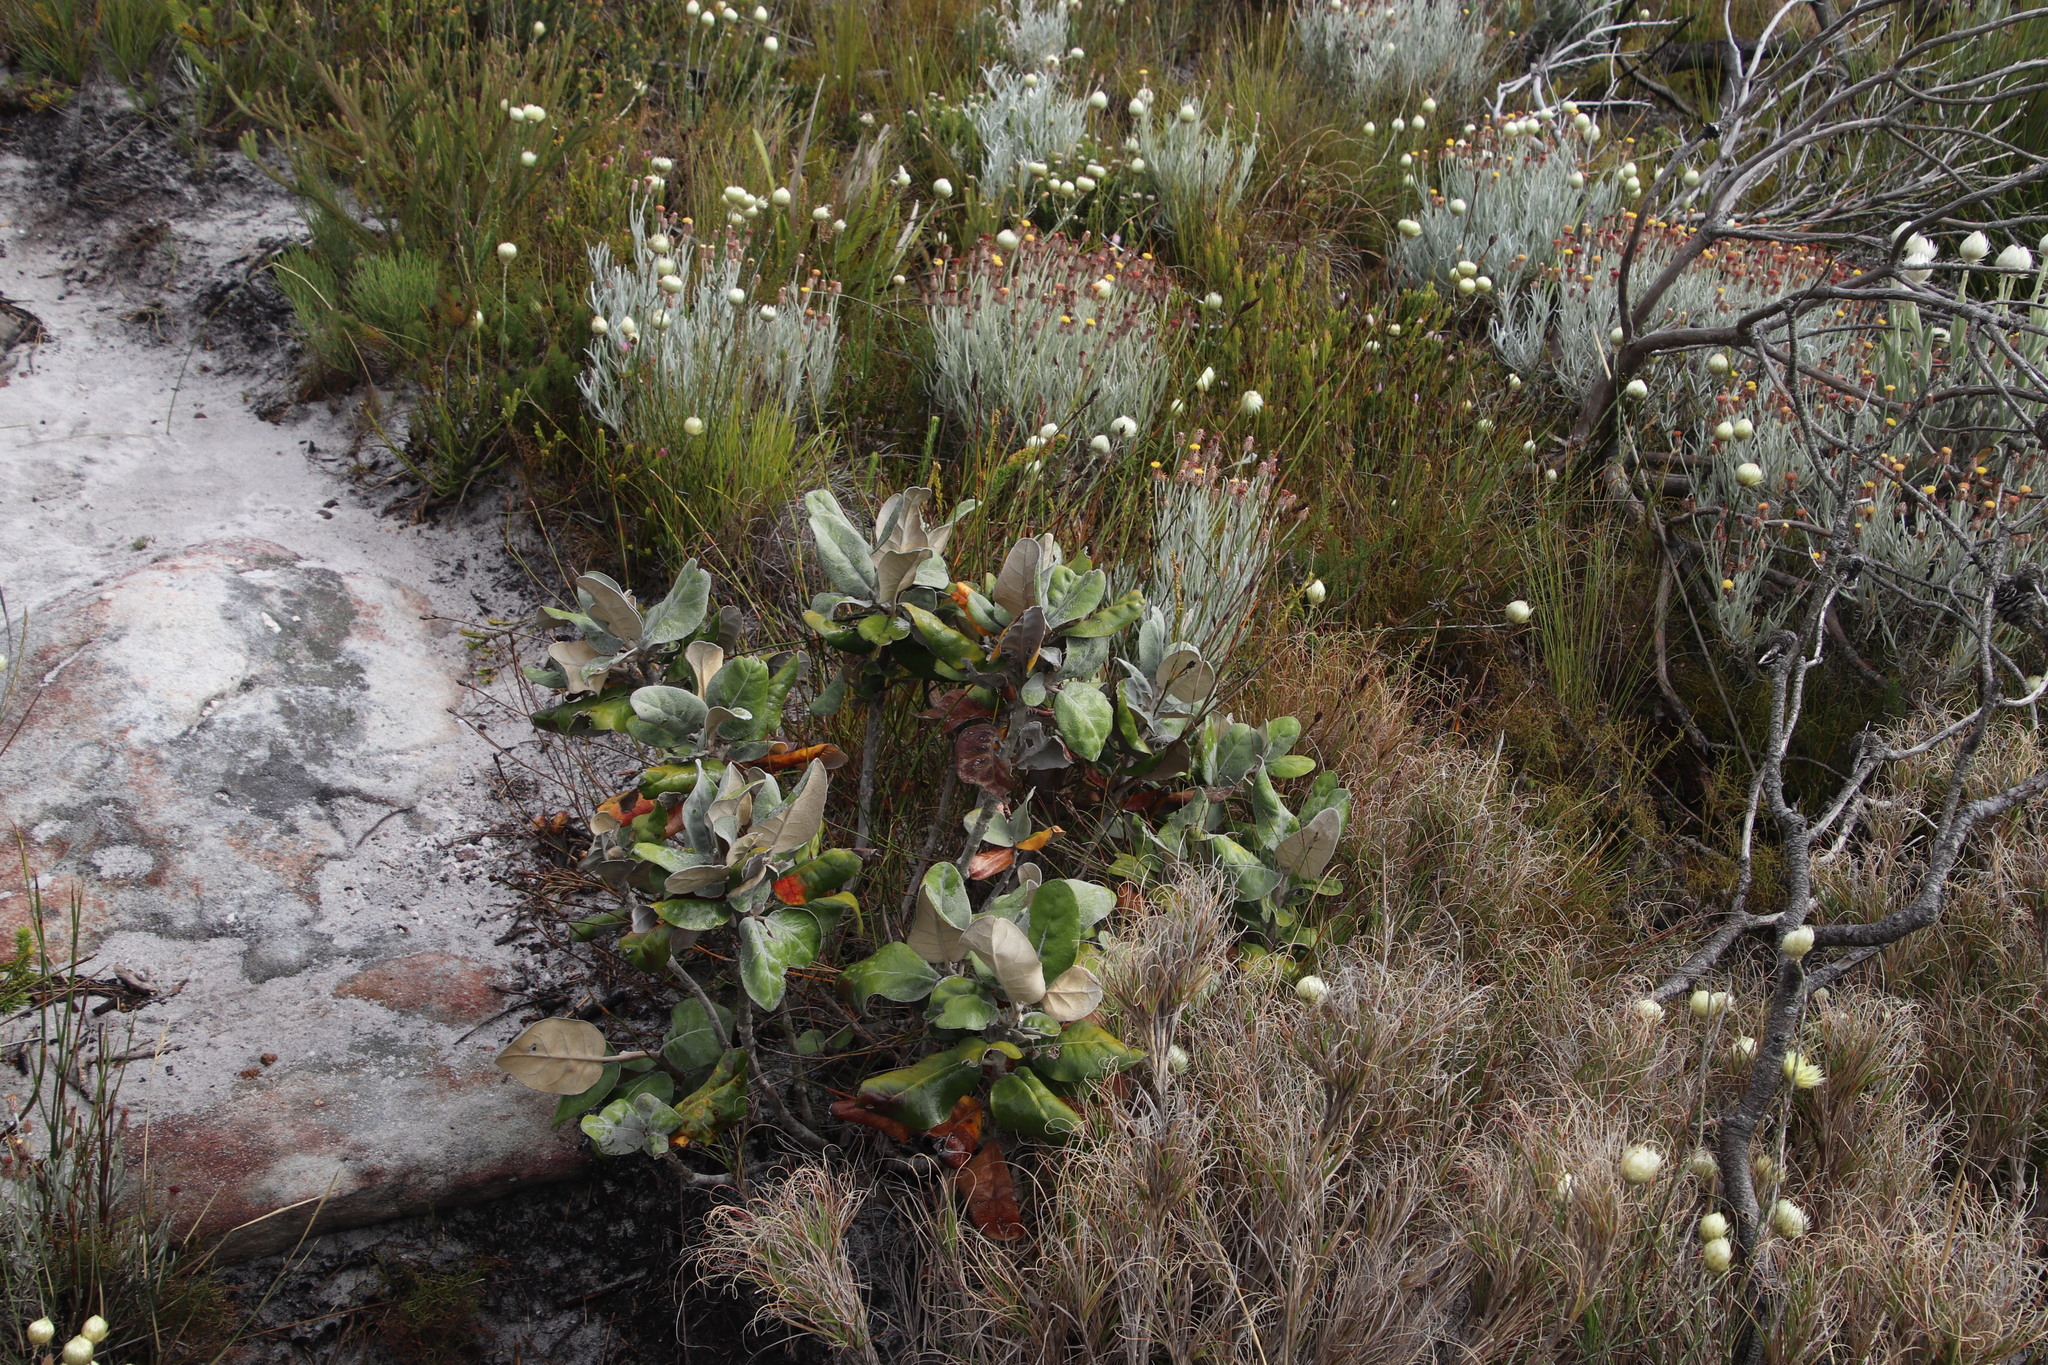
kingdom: Plantae
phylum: Tracheophyta
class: Magnoliopsida
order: Apiales
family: Apiaceae
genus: Hermas
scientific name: Hermas villosa
